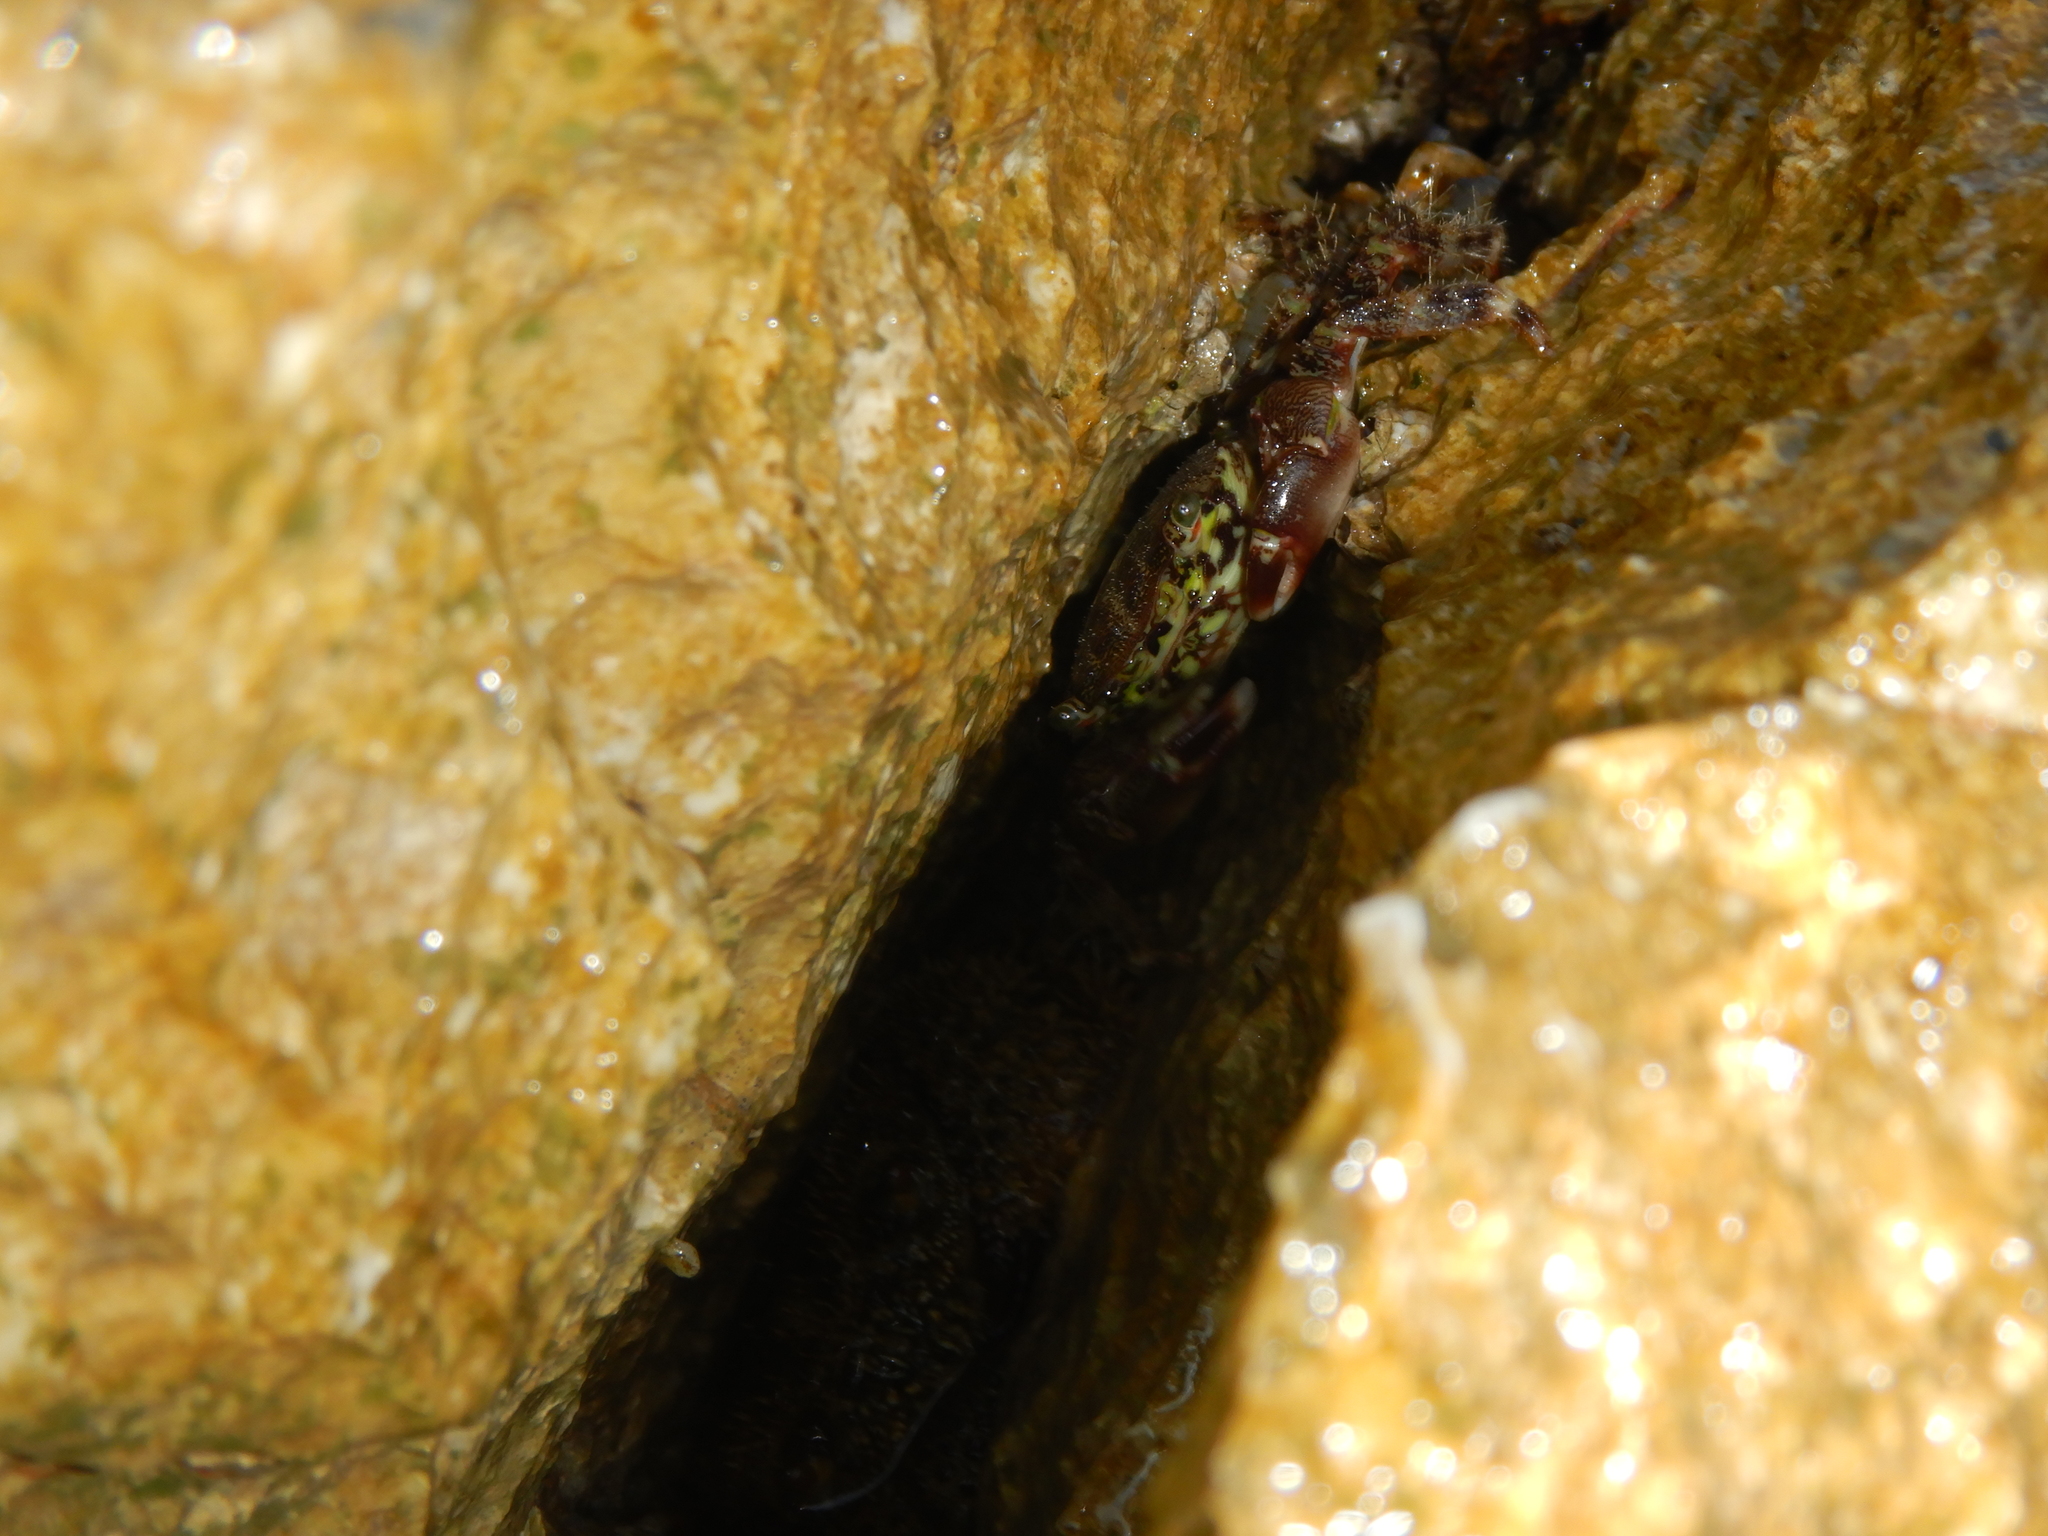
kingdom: Animalia
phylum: Arthropoda
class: Malacostraca
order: Decapoda
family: Grapsidae
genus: Pachygrapsus
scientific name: Pachygrapsus marmoratus
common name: Marbled rock crab
